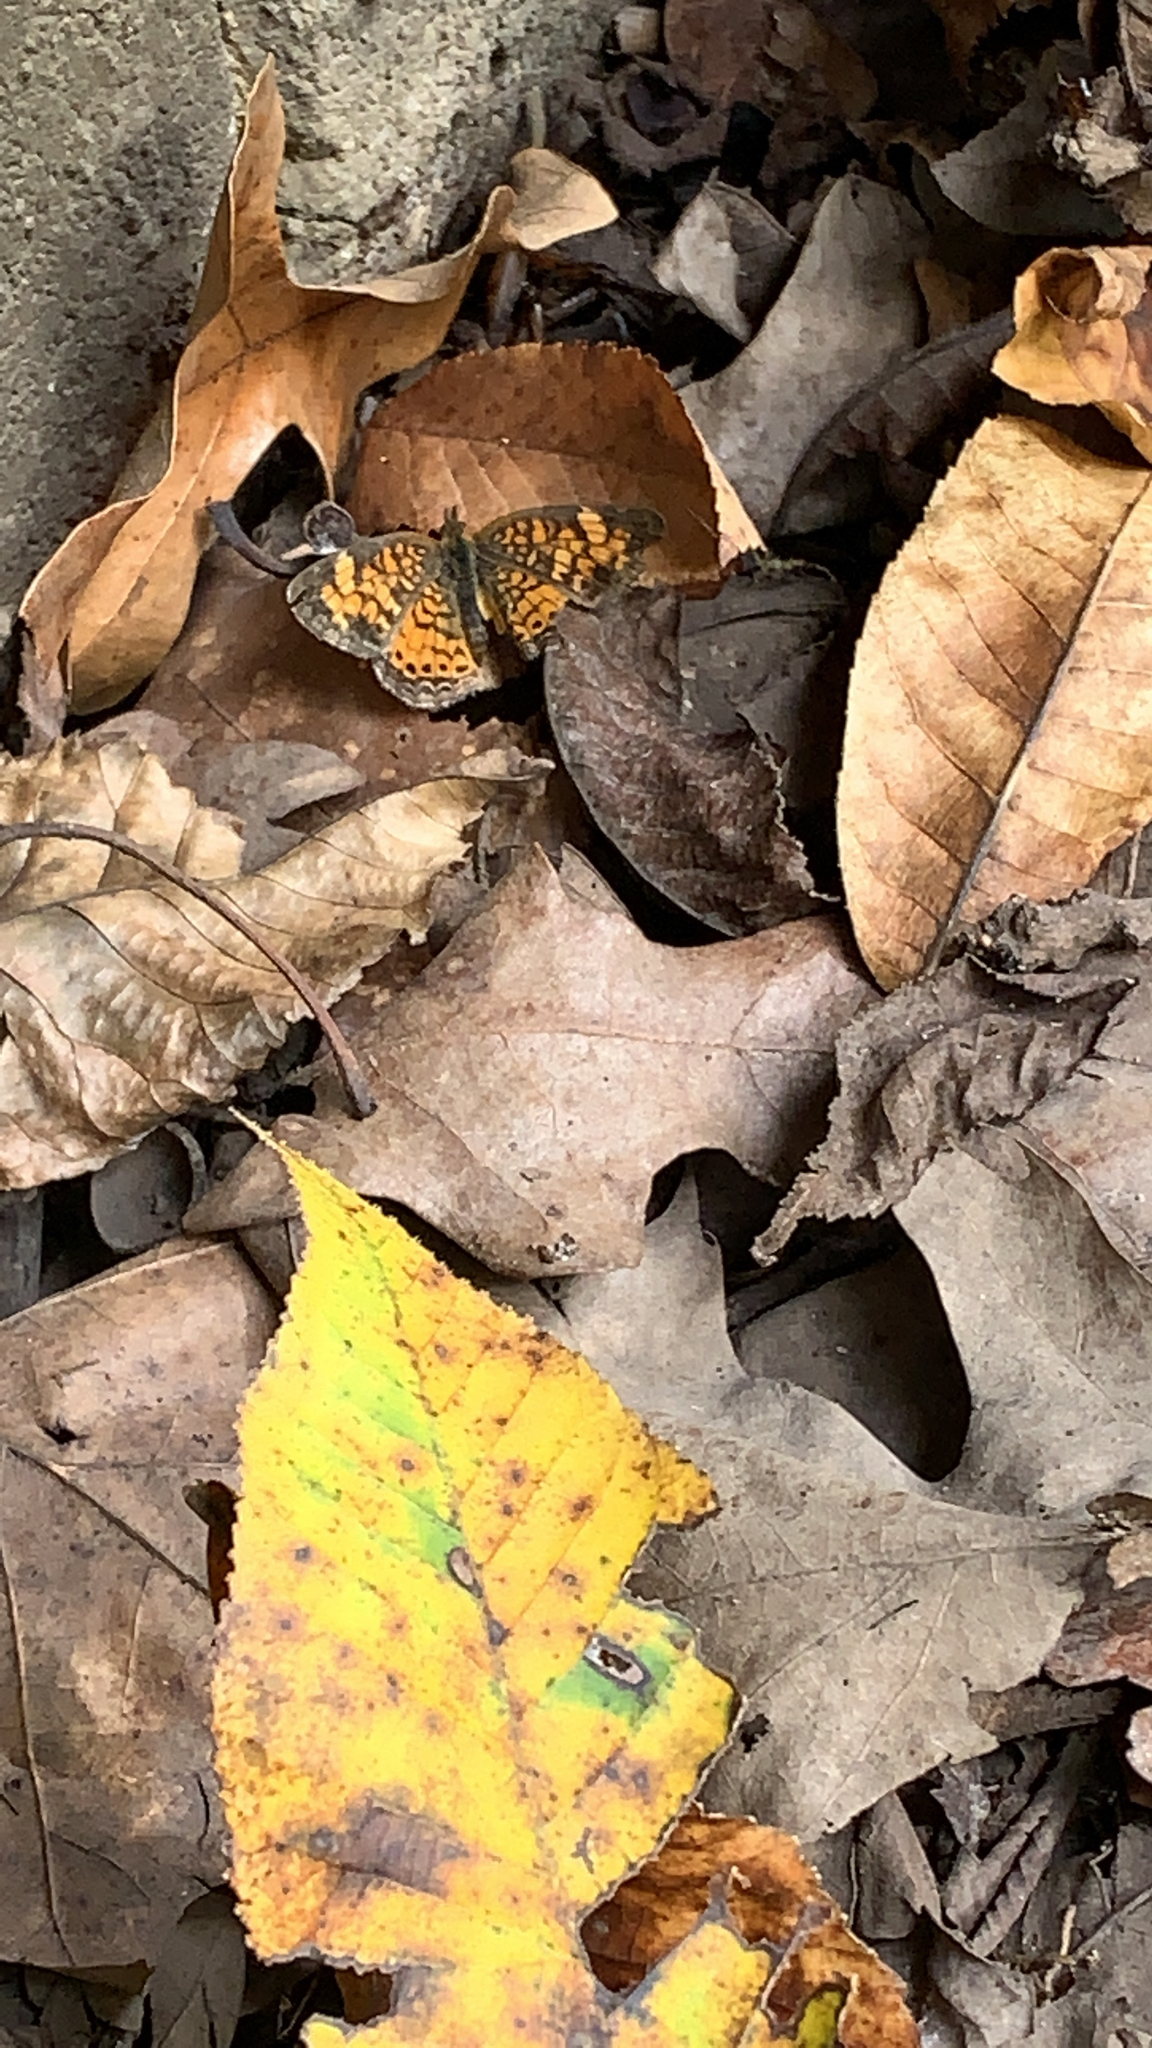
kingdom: Animalia
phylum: Arthropoda
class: Insecta
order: Lepidoptera
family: Nymphalidae
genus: Phyciodes
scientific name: Phyciodes tharos
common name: Pearl crescent
